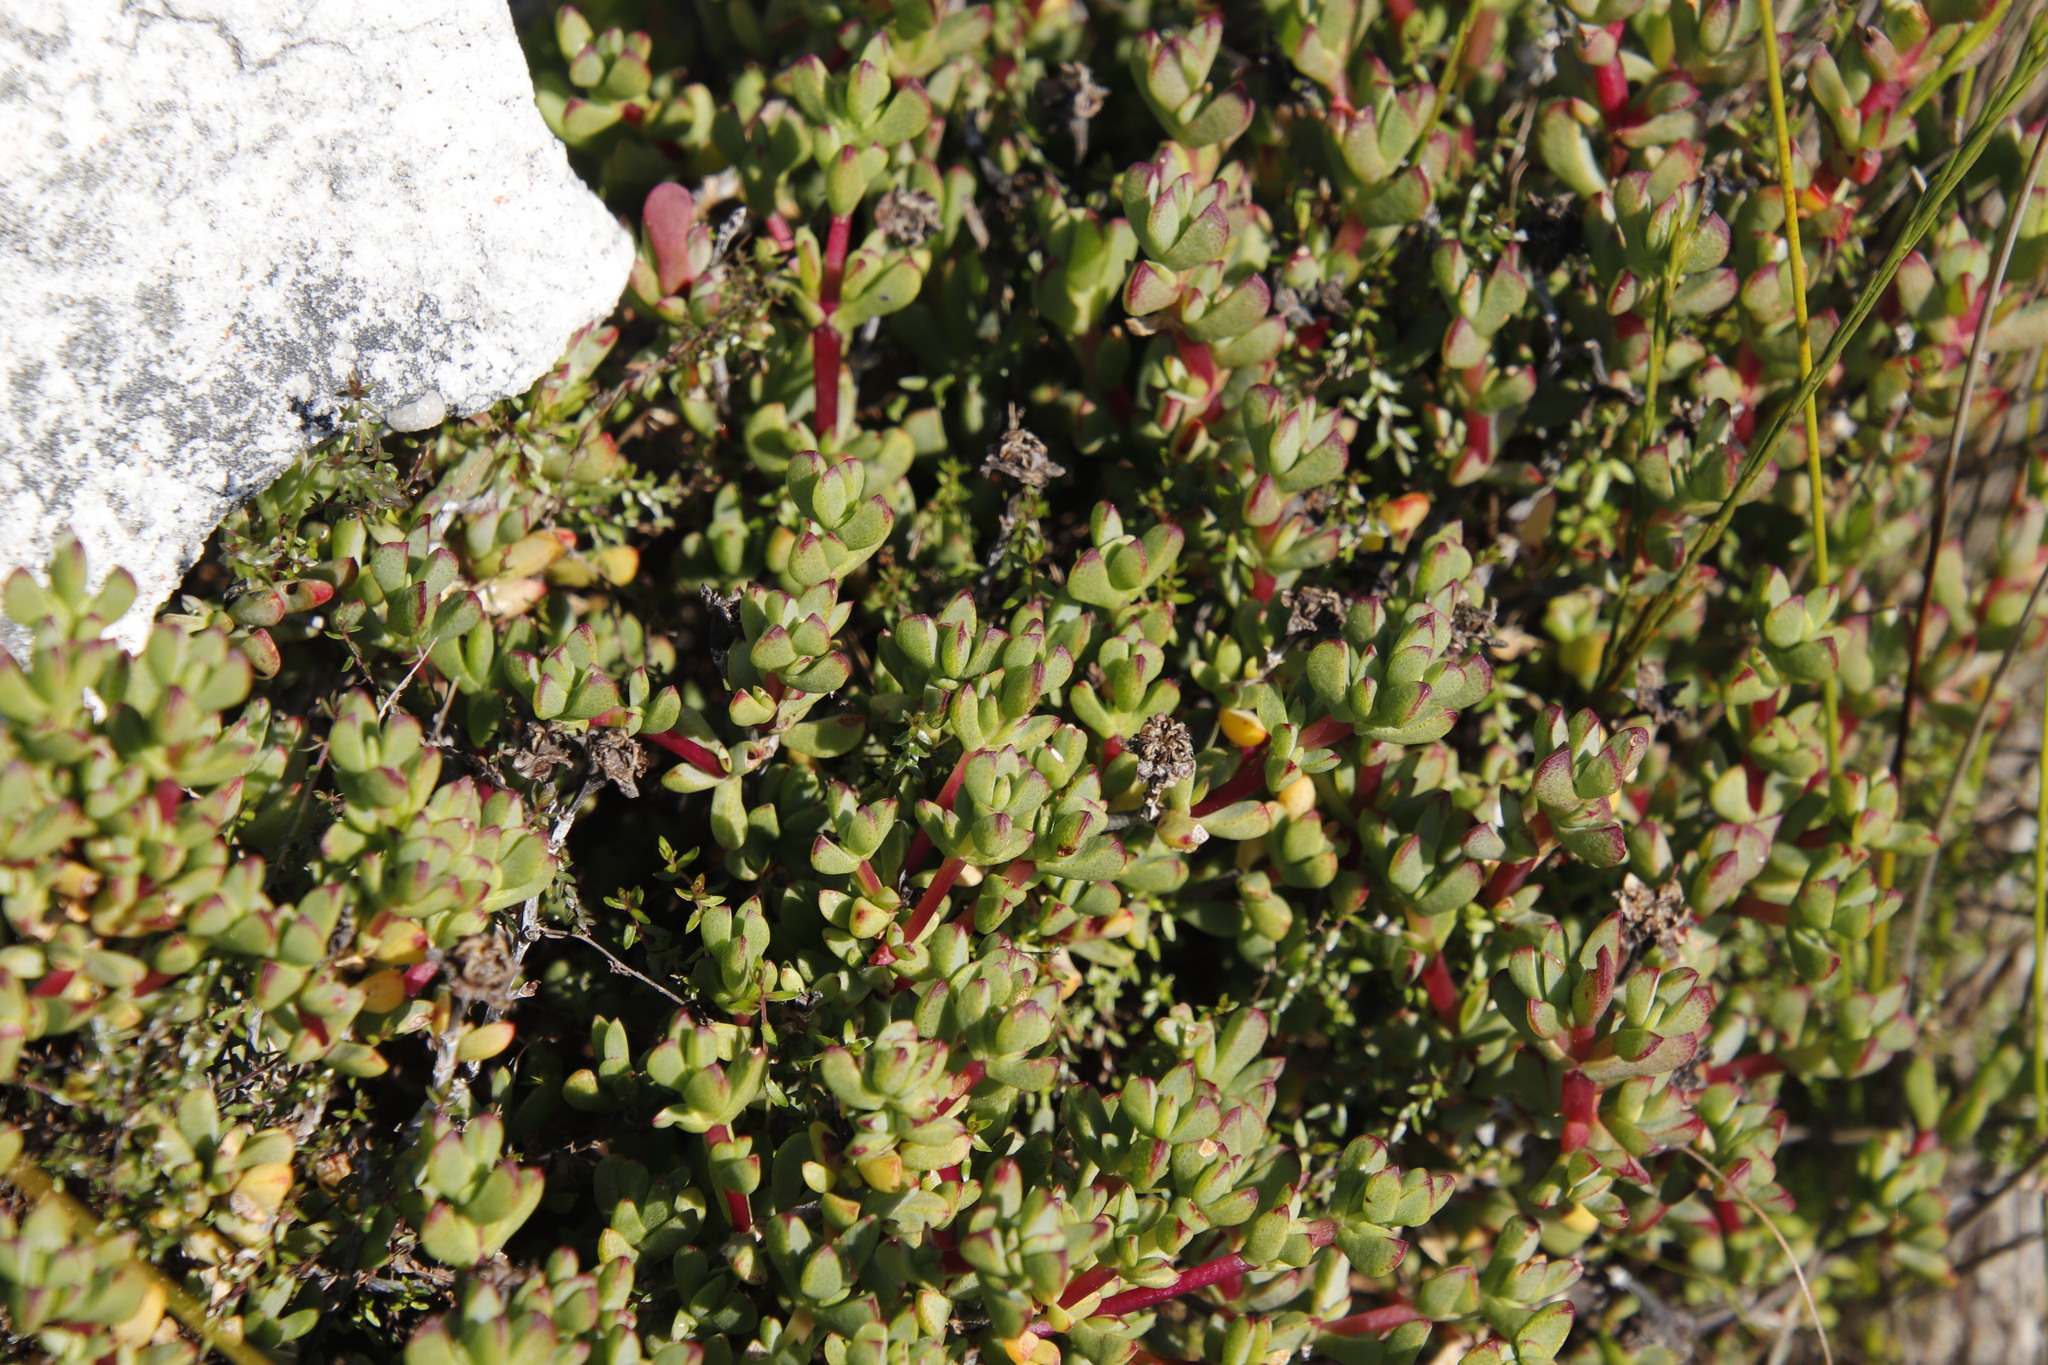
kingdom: Plantae
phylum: Tracheophyta
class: Magnoliopsida
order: Caryophyllales
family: Aizoaceae
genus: Oscularia
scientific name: Oscularia falciformis
